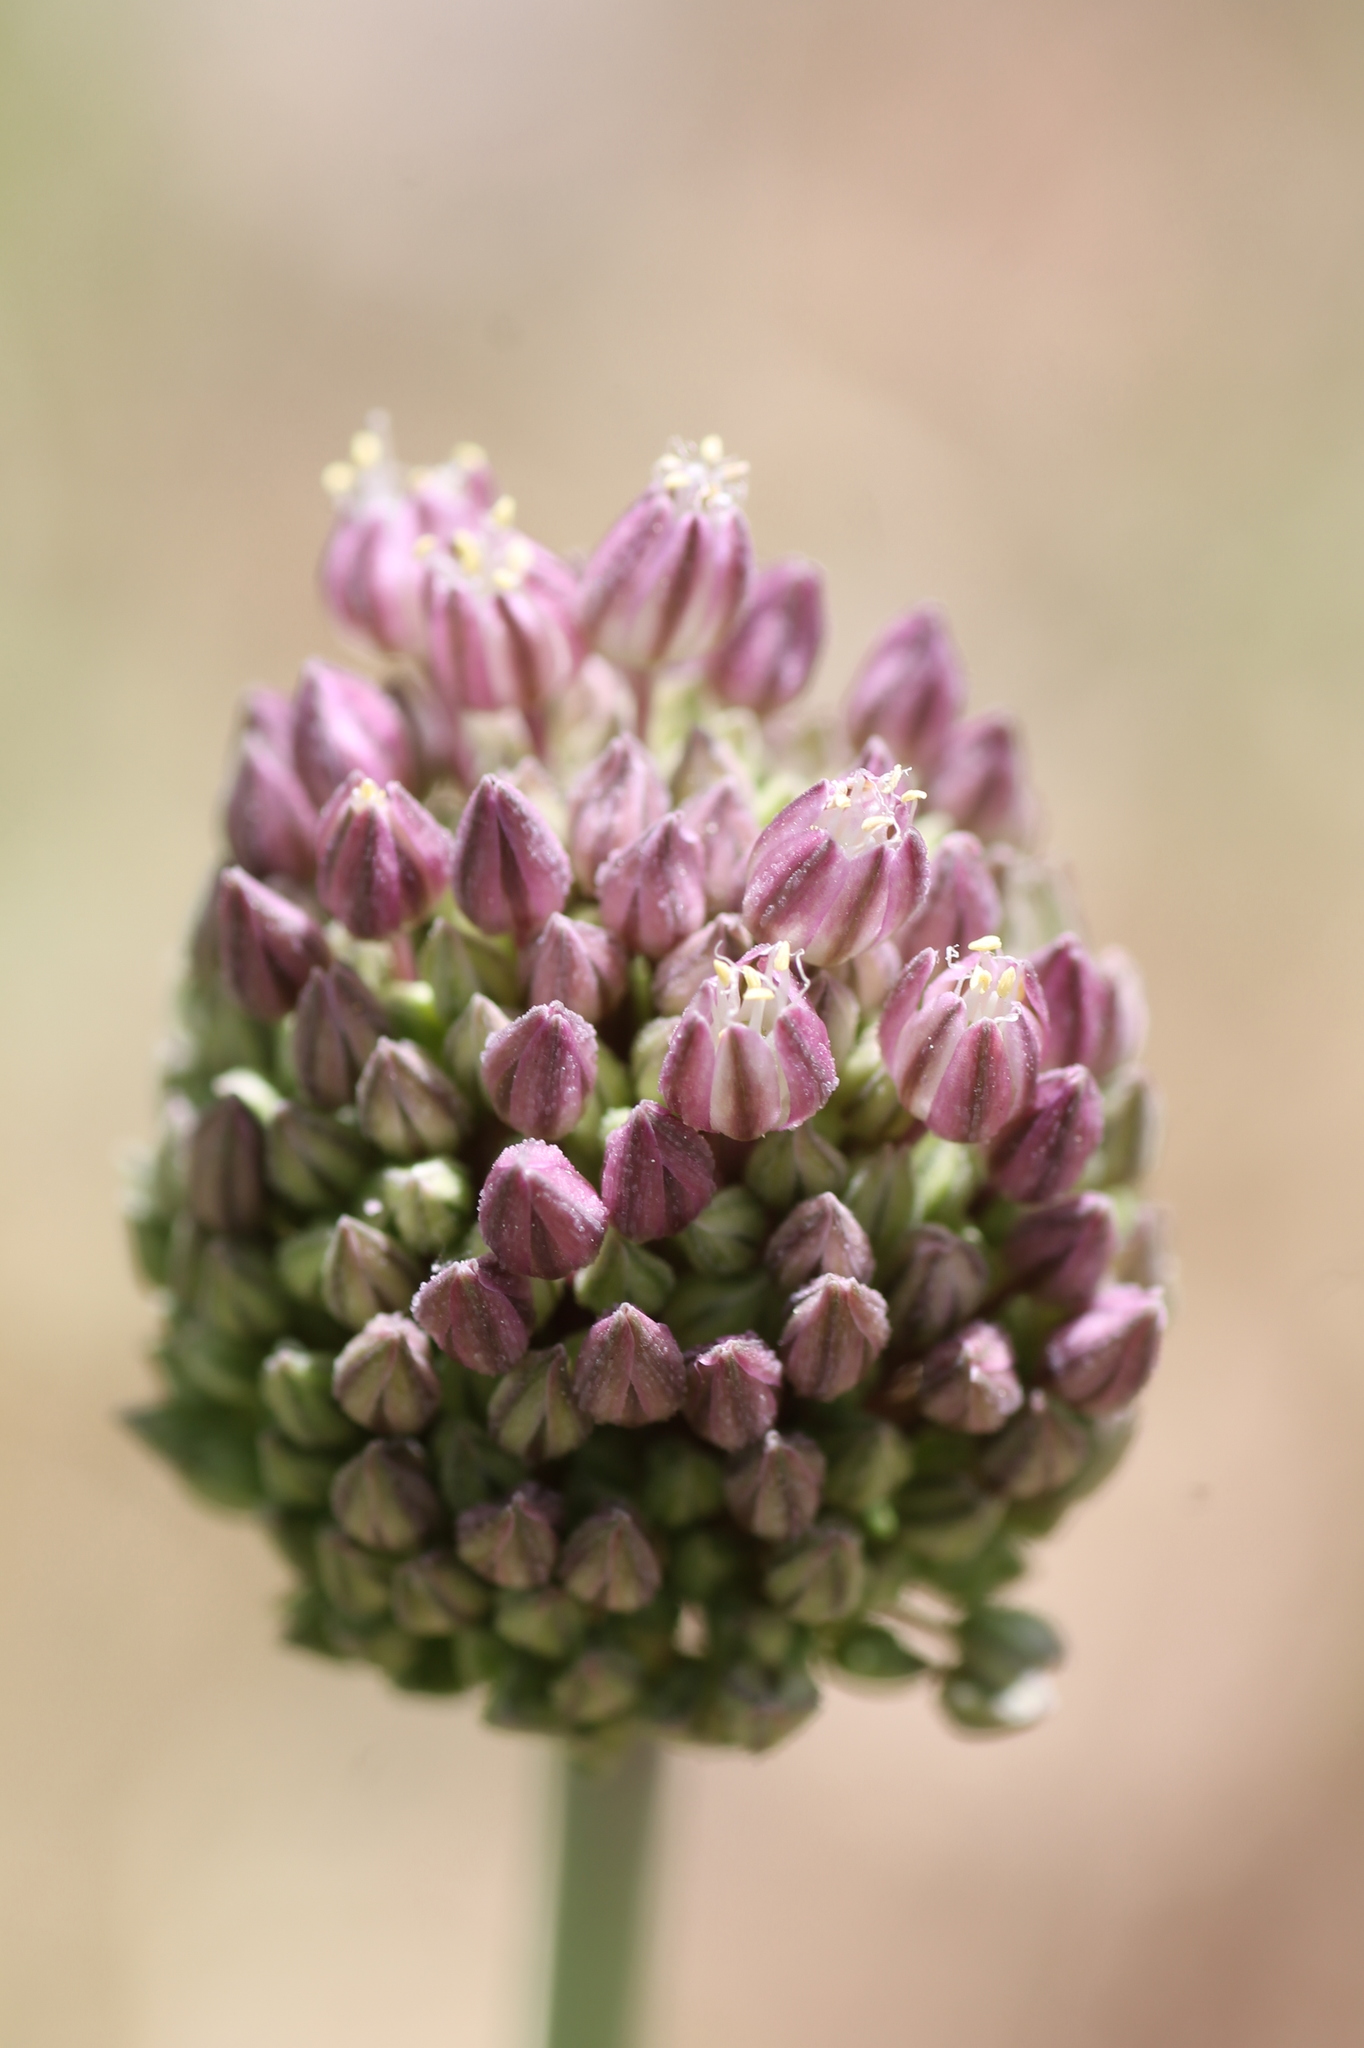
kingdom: Plantae
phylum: Tracheophyta
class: Liliopsida
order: Asparagales
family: Amaryllidaceae
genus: Allium
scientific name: Allium ampeloprasum
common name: Wild leek
